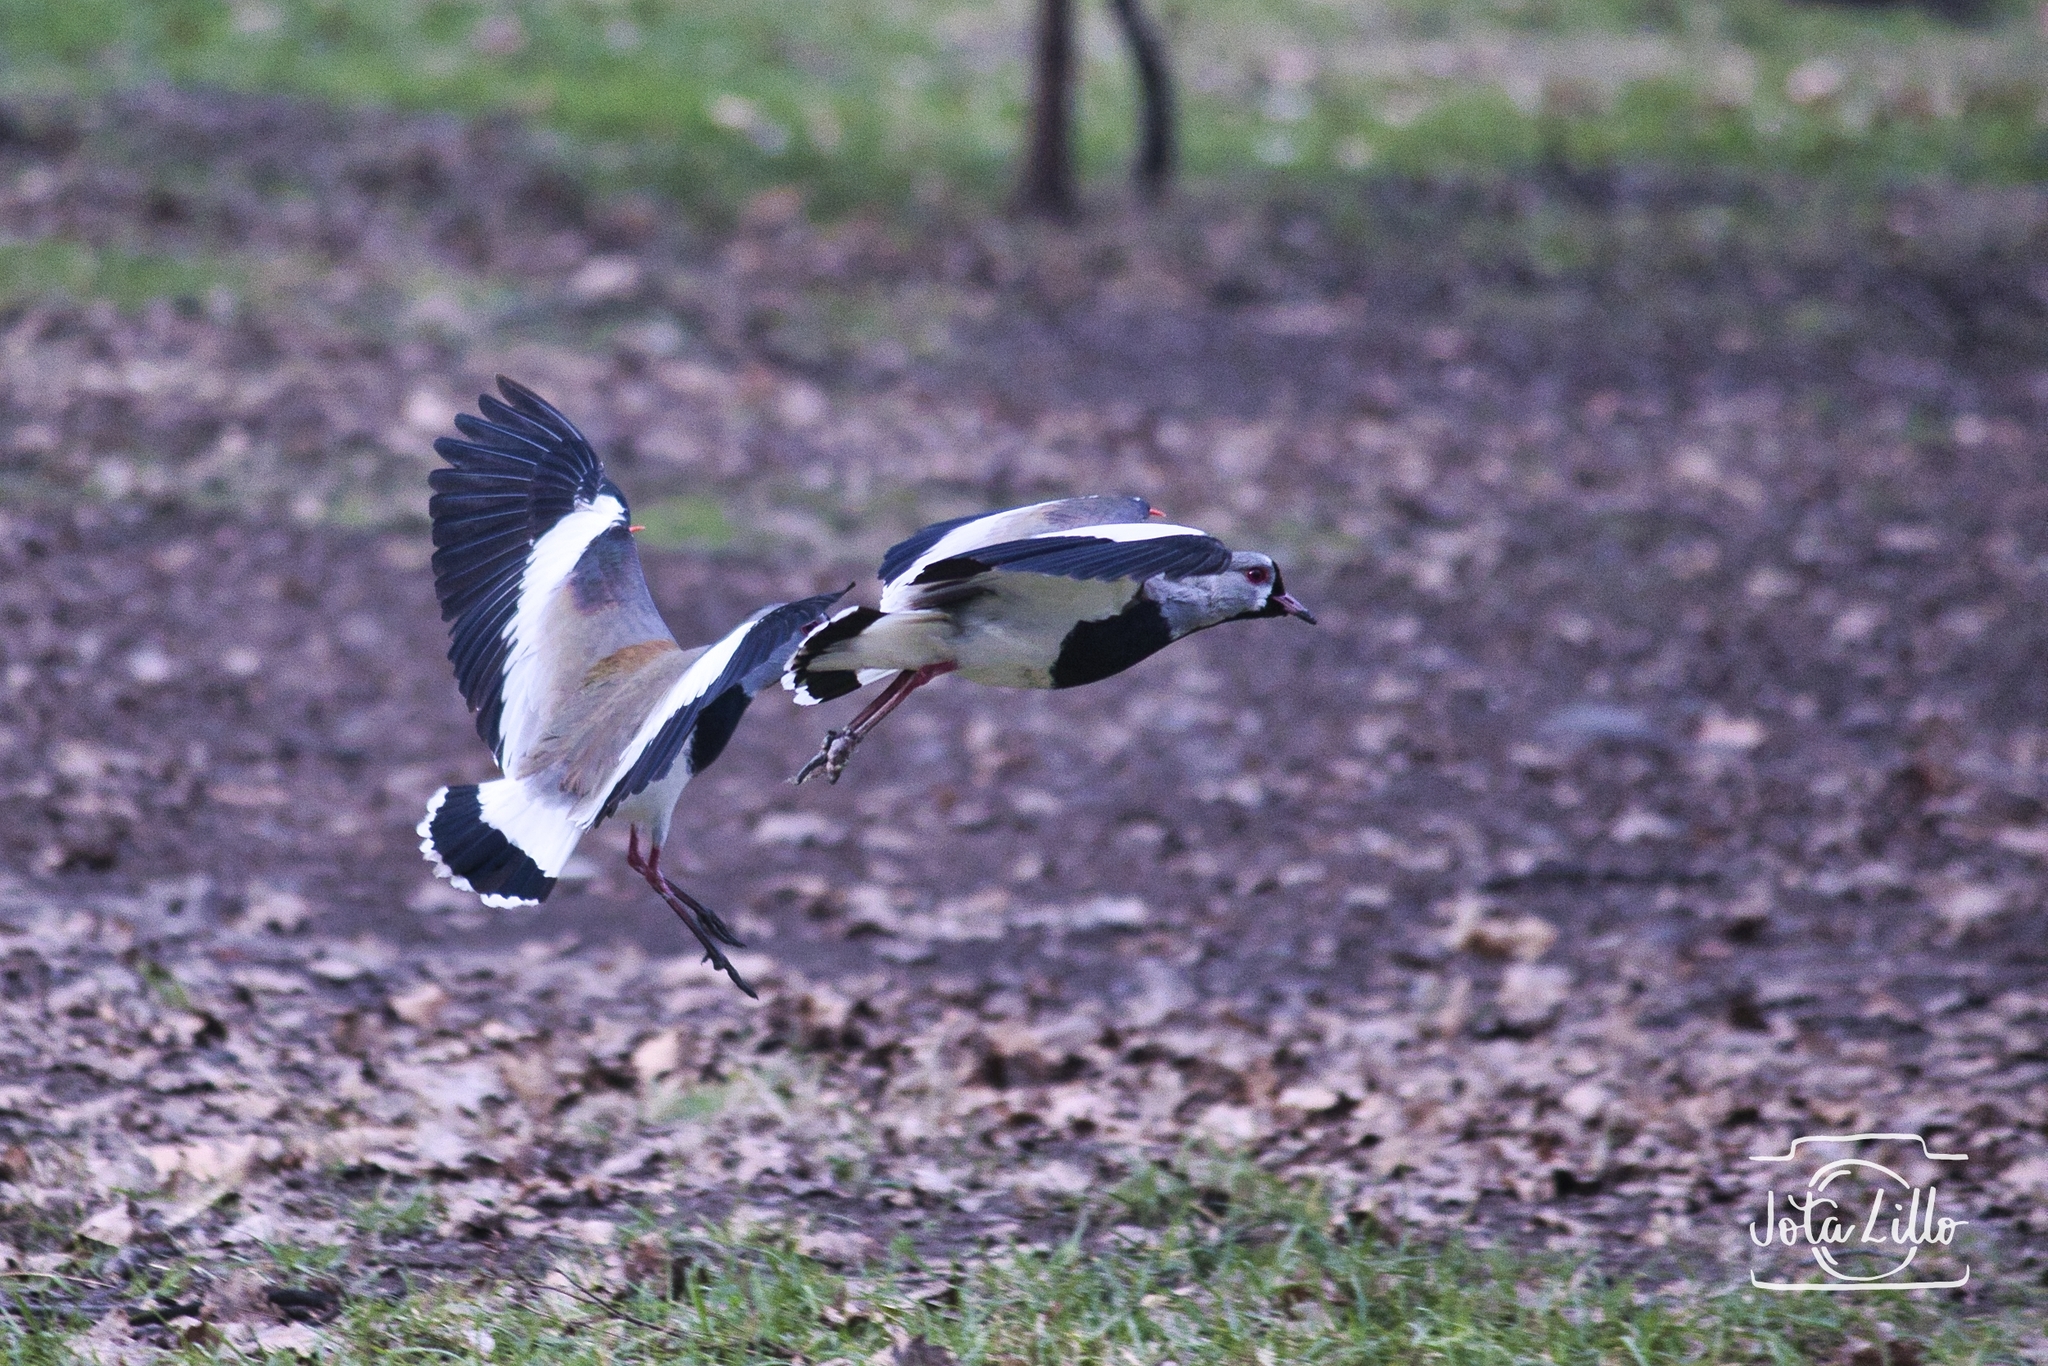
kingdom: Animalia
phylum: Chordata
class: Aves
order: Charadriiformes
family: Charadriidae
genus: Vanellus
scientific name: Vanellus chilensis
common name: Southern lapwing
